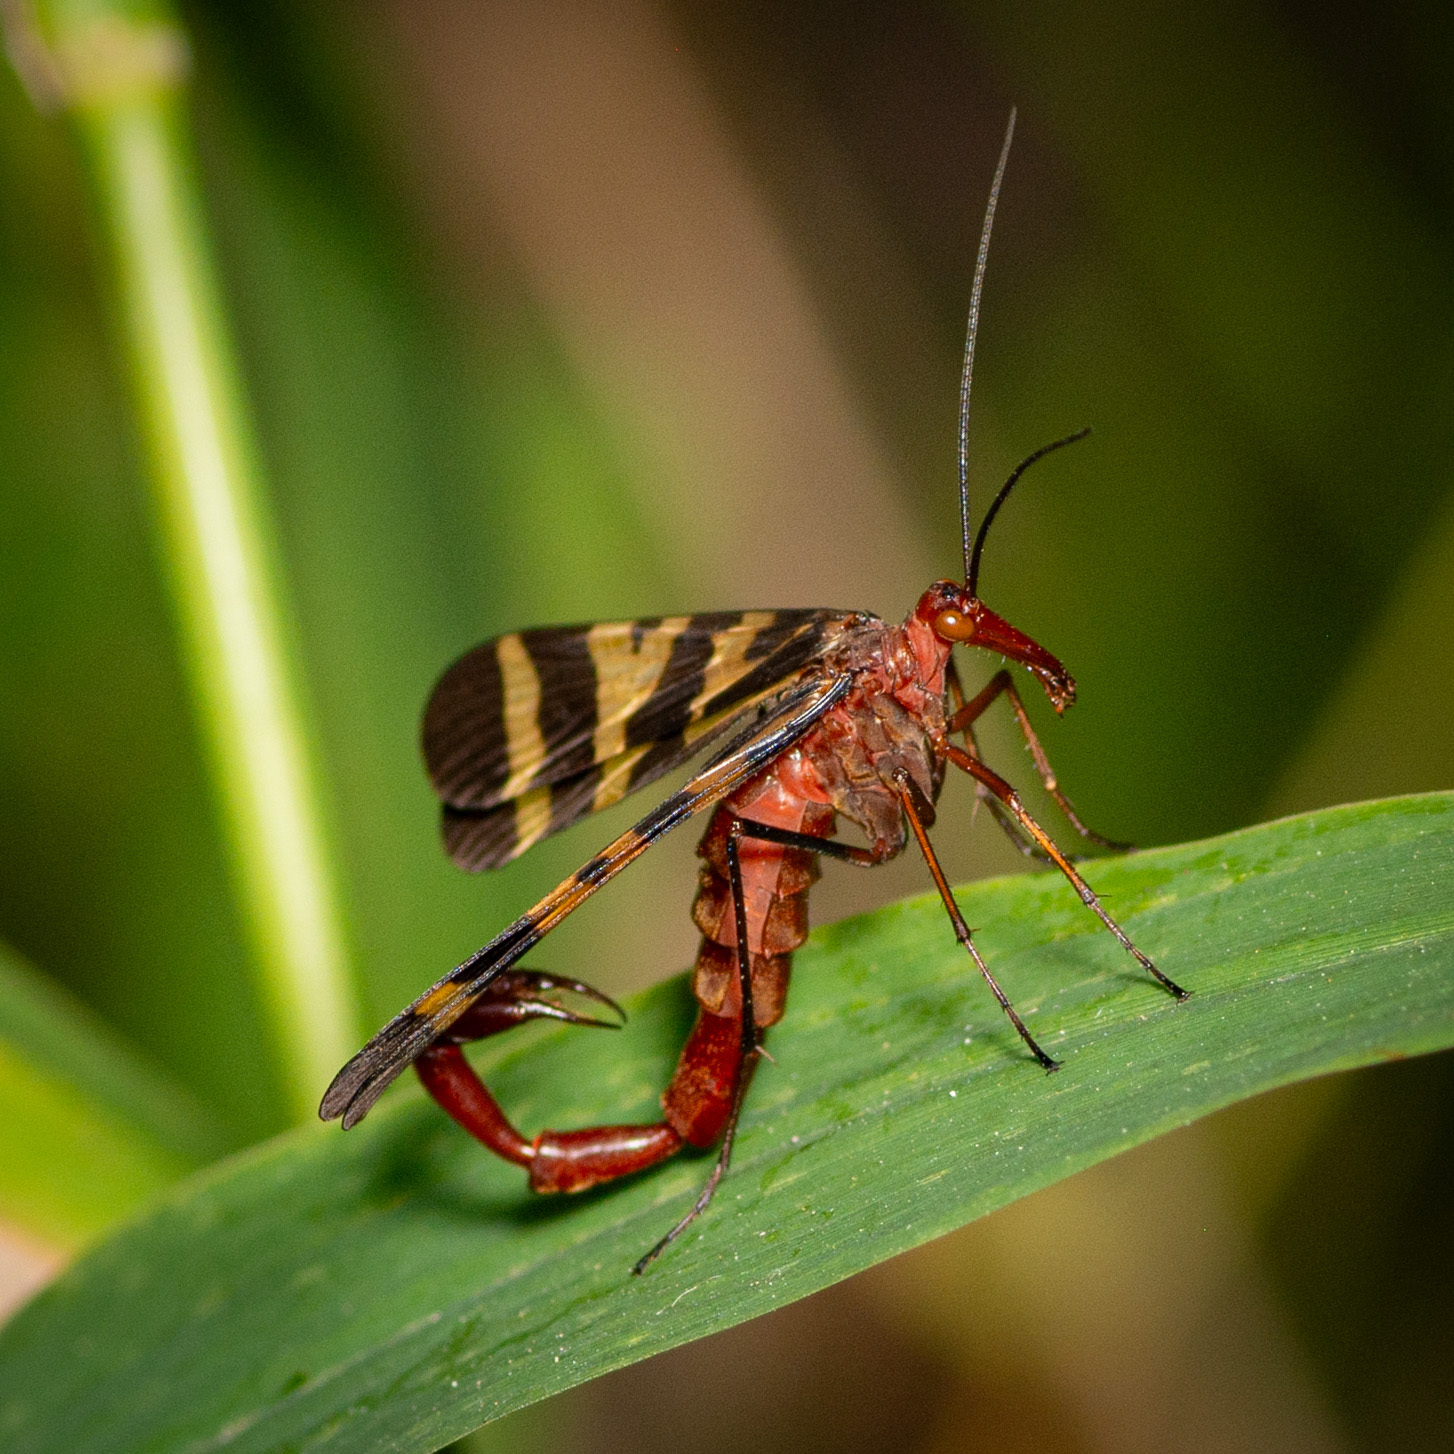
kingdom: Animalia
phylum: Arthropoda
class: Insecta
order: Mecoptera
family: Panorpidae
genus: Panorpa
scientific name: Panorpa nuptialis
